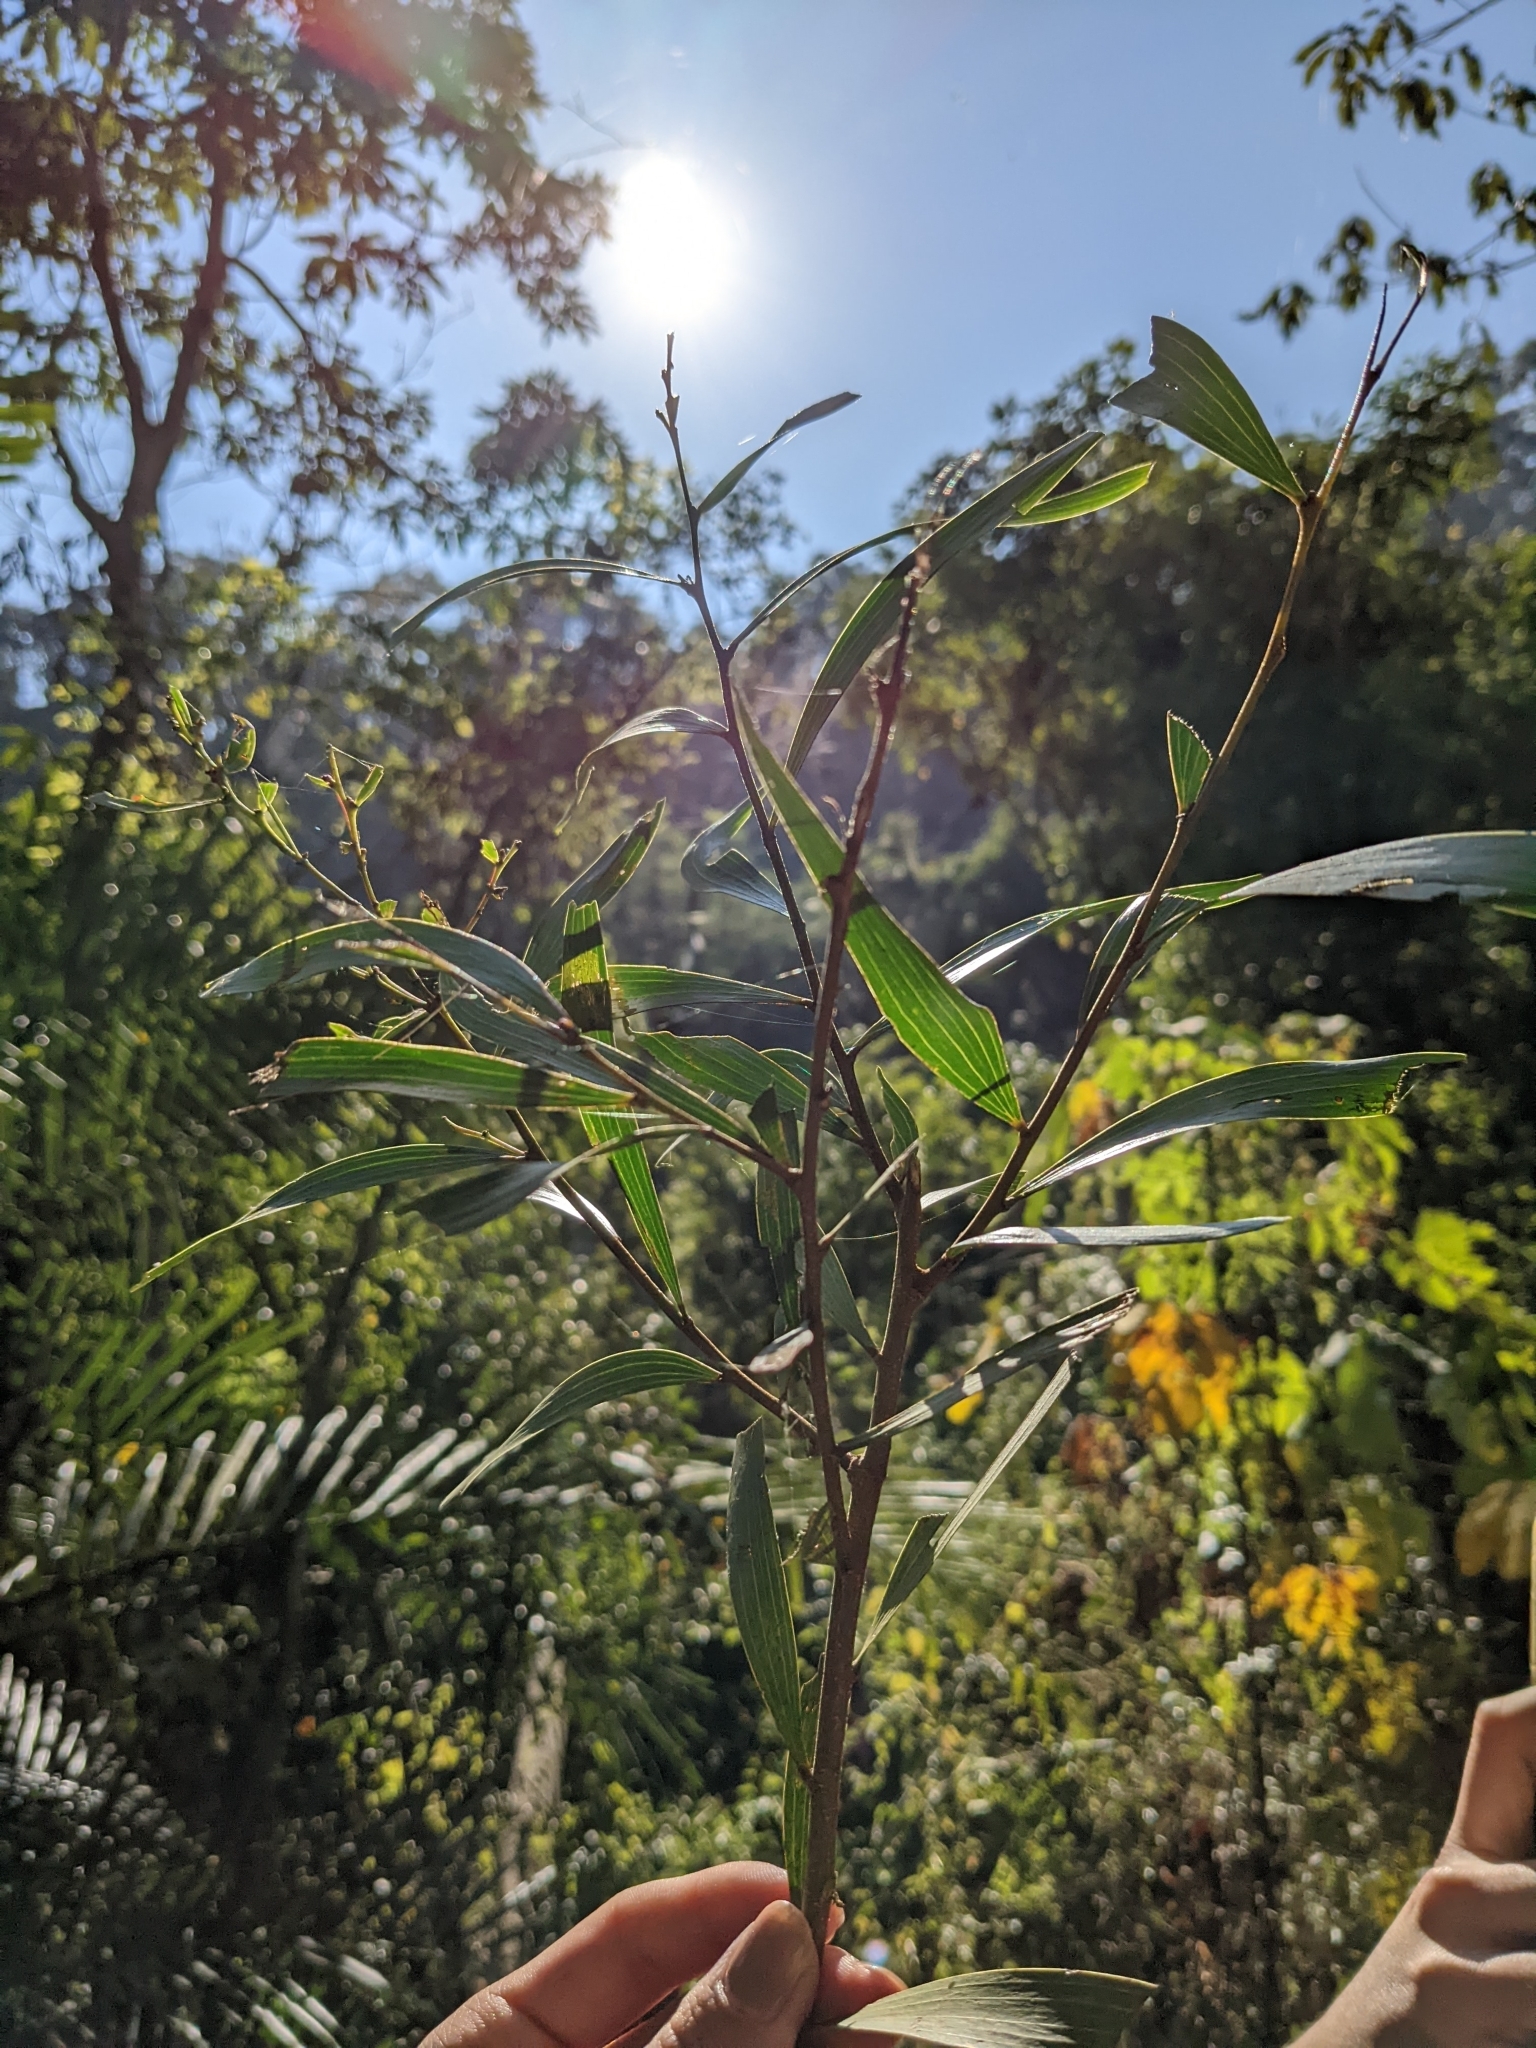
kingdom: Plantae
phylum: Tracheophyta
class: Magnoliopsida
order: Fabales
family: Fabaceae
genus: Acacia
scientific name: Acacia confusa
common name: Formosan koa
